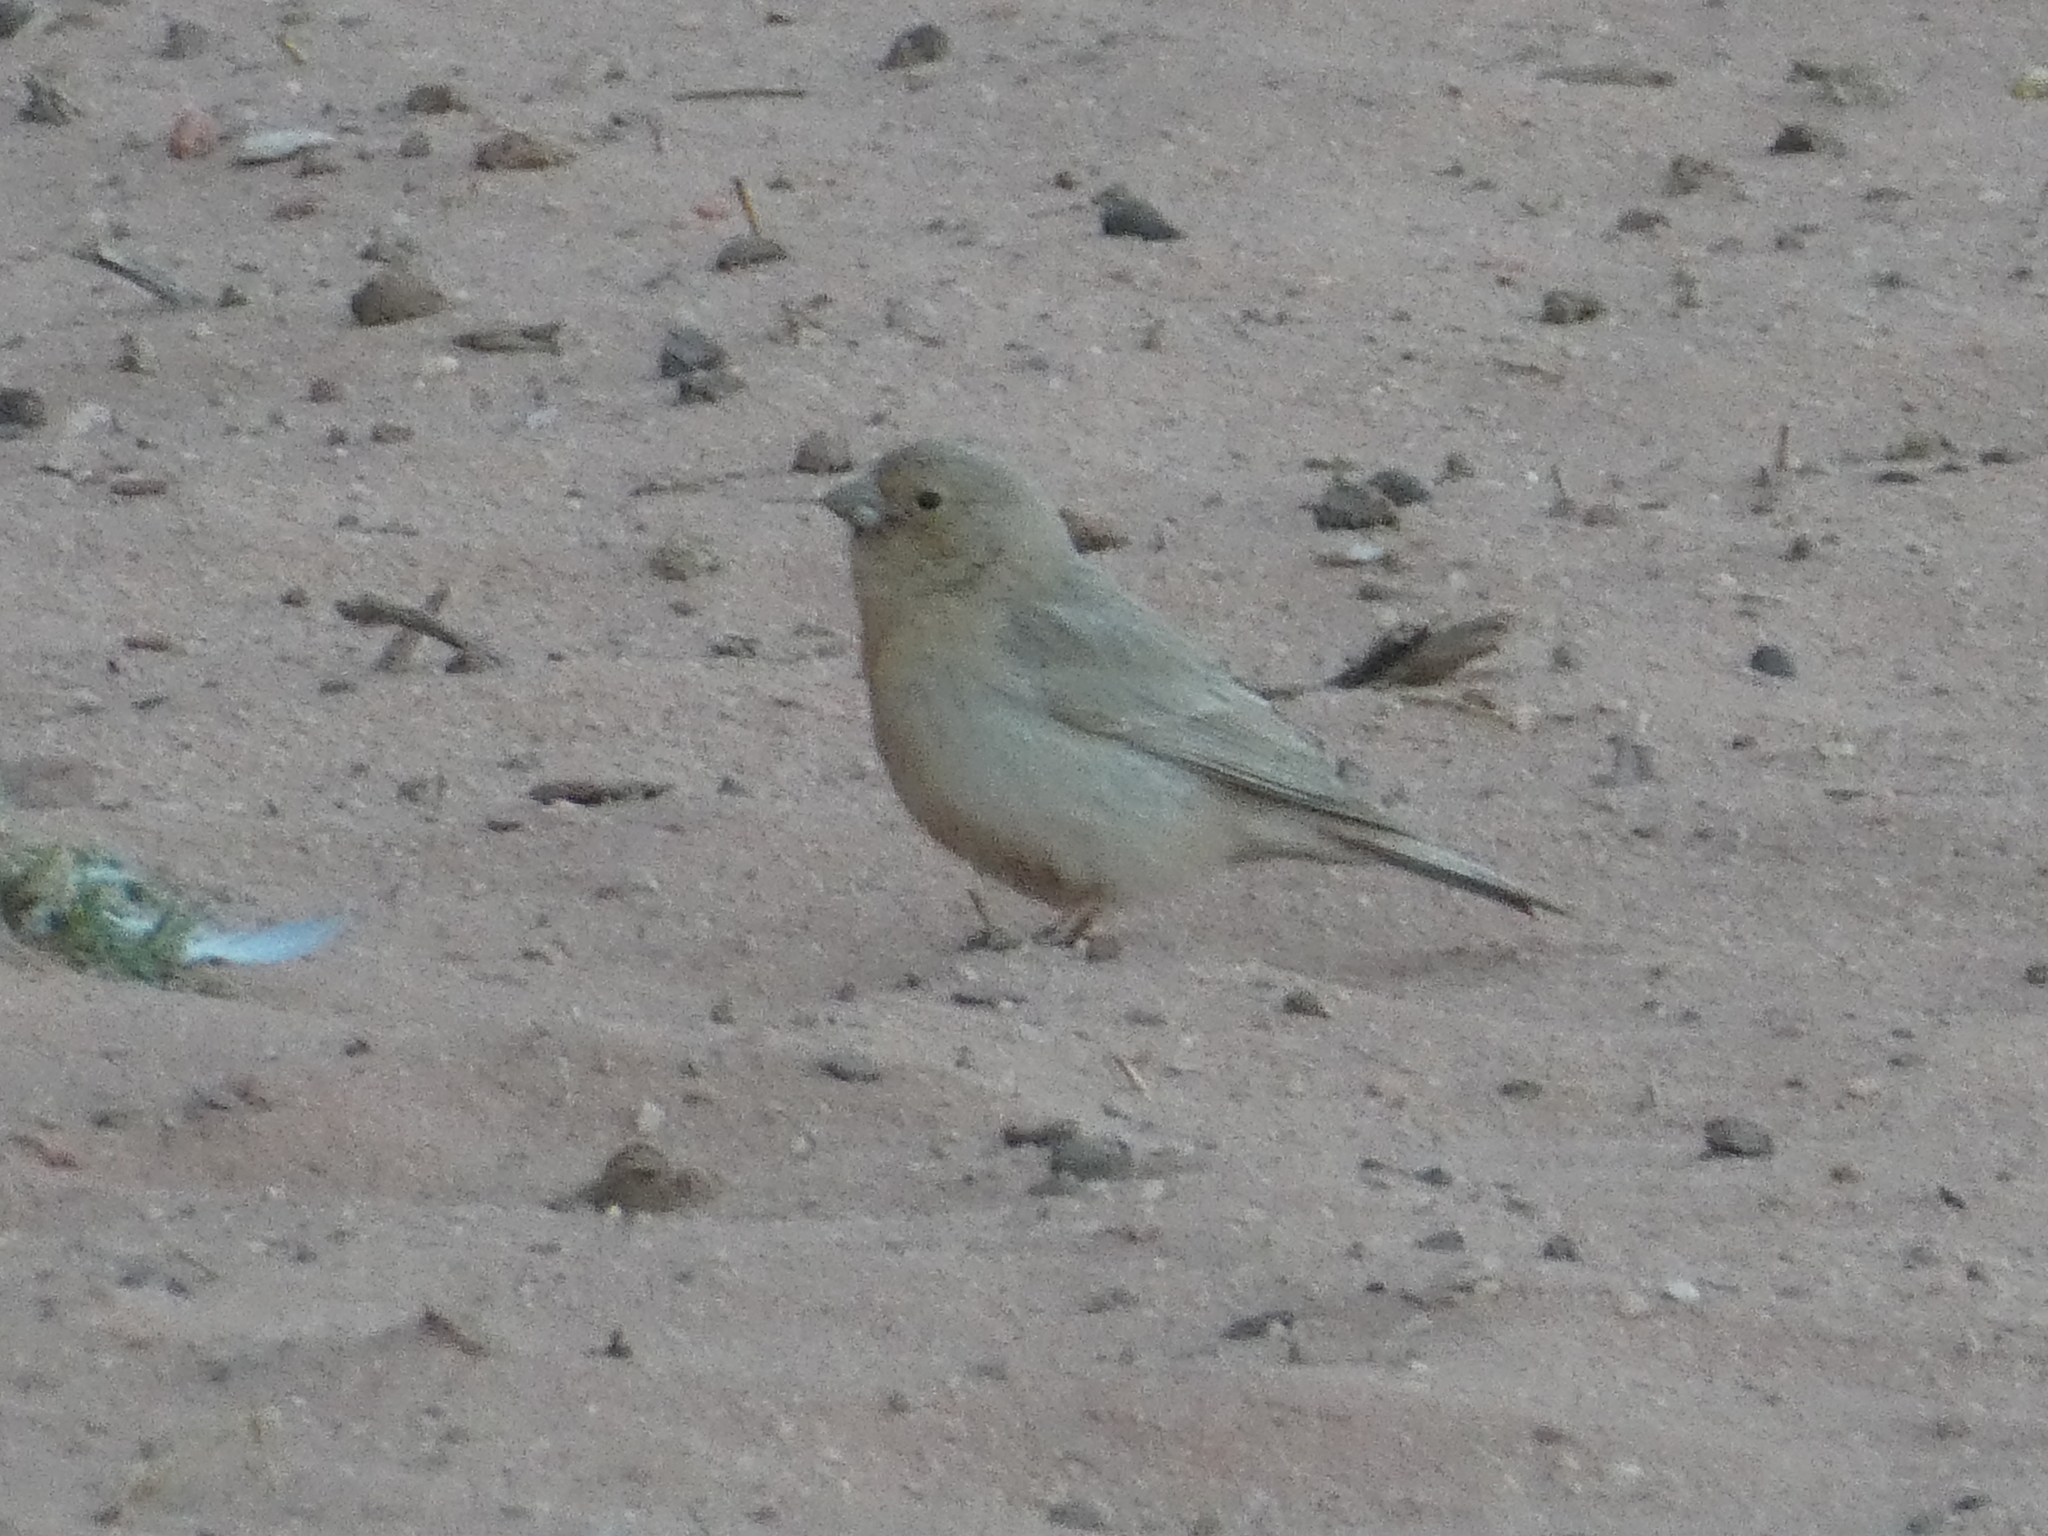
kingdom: Animalia
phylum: Chordata
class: Aves
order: Passeriformes
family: Fringillidae
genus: Carpodacus
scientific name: Carpodacus synoicus
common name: Sinai rosefinch
